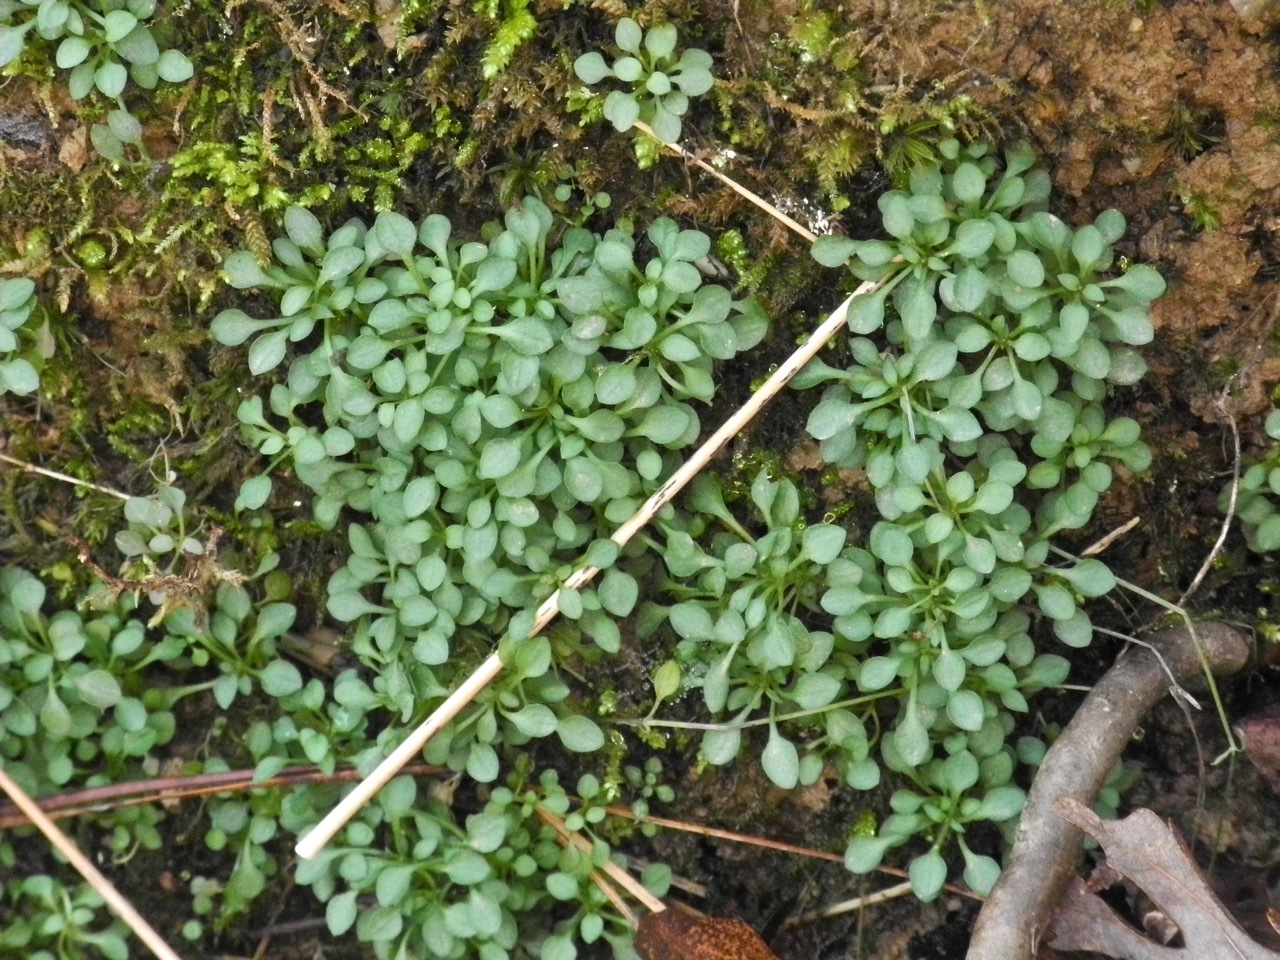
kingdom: Plantae
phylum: Tracheophyta
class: Magnoliopsida
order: Gentianales
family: Rubiaceae
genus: Houstonia
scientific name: Houstonia caerulea
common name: Bluets
